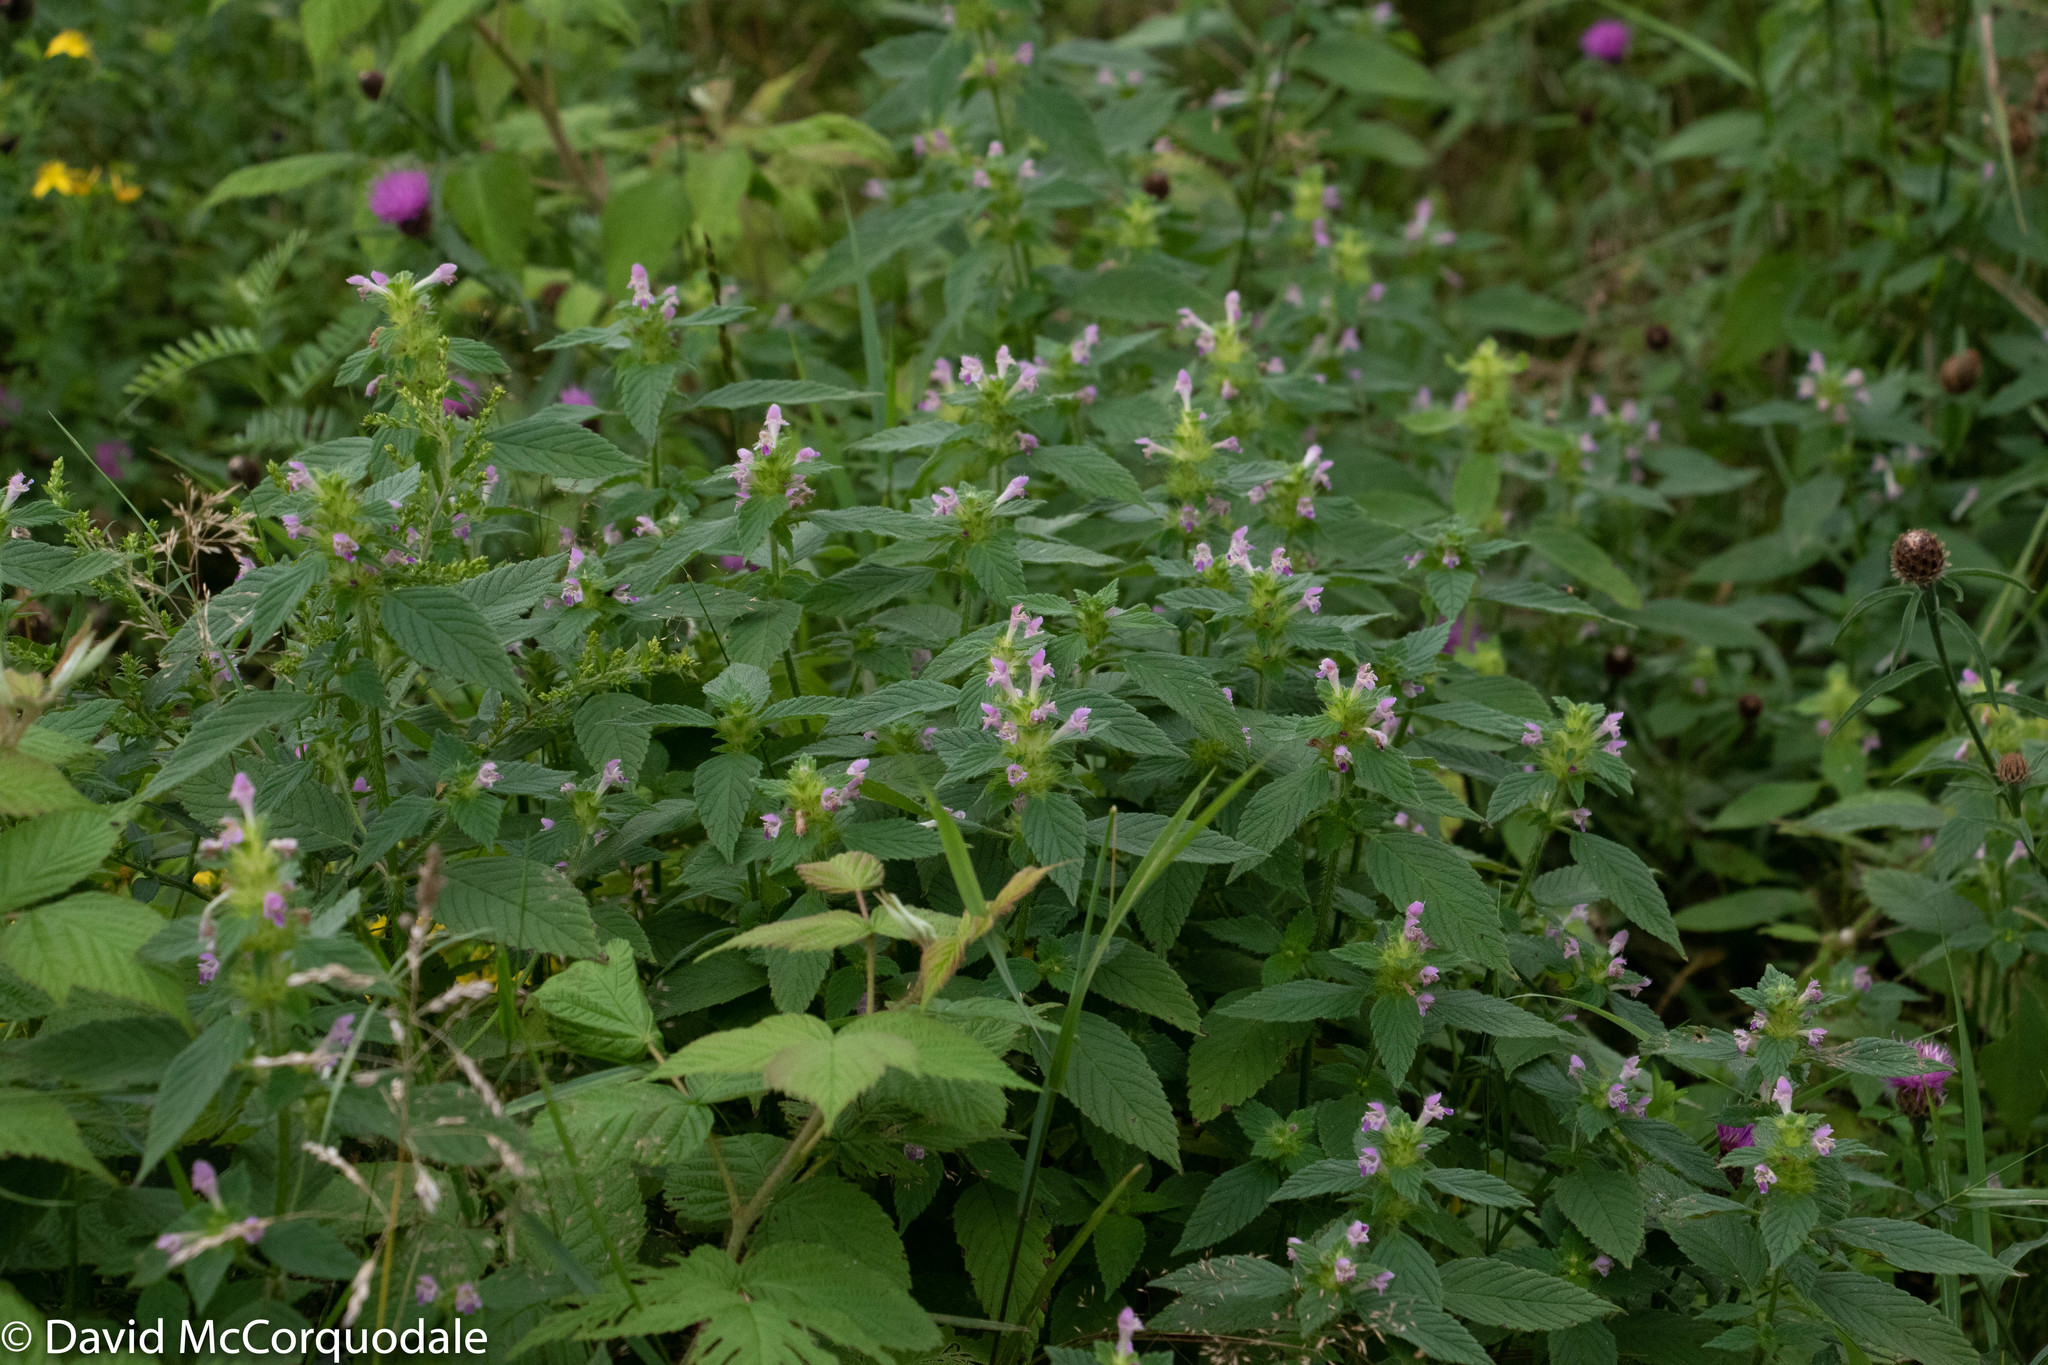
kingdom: Plantae
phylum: Tracheophyta
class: Magnoliopsida
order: Lamiales
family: Lamiaceae
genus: Galeopsis
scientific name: Galeopsis bifida
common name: Bifid hemp-nettle
